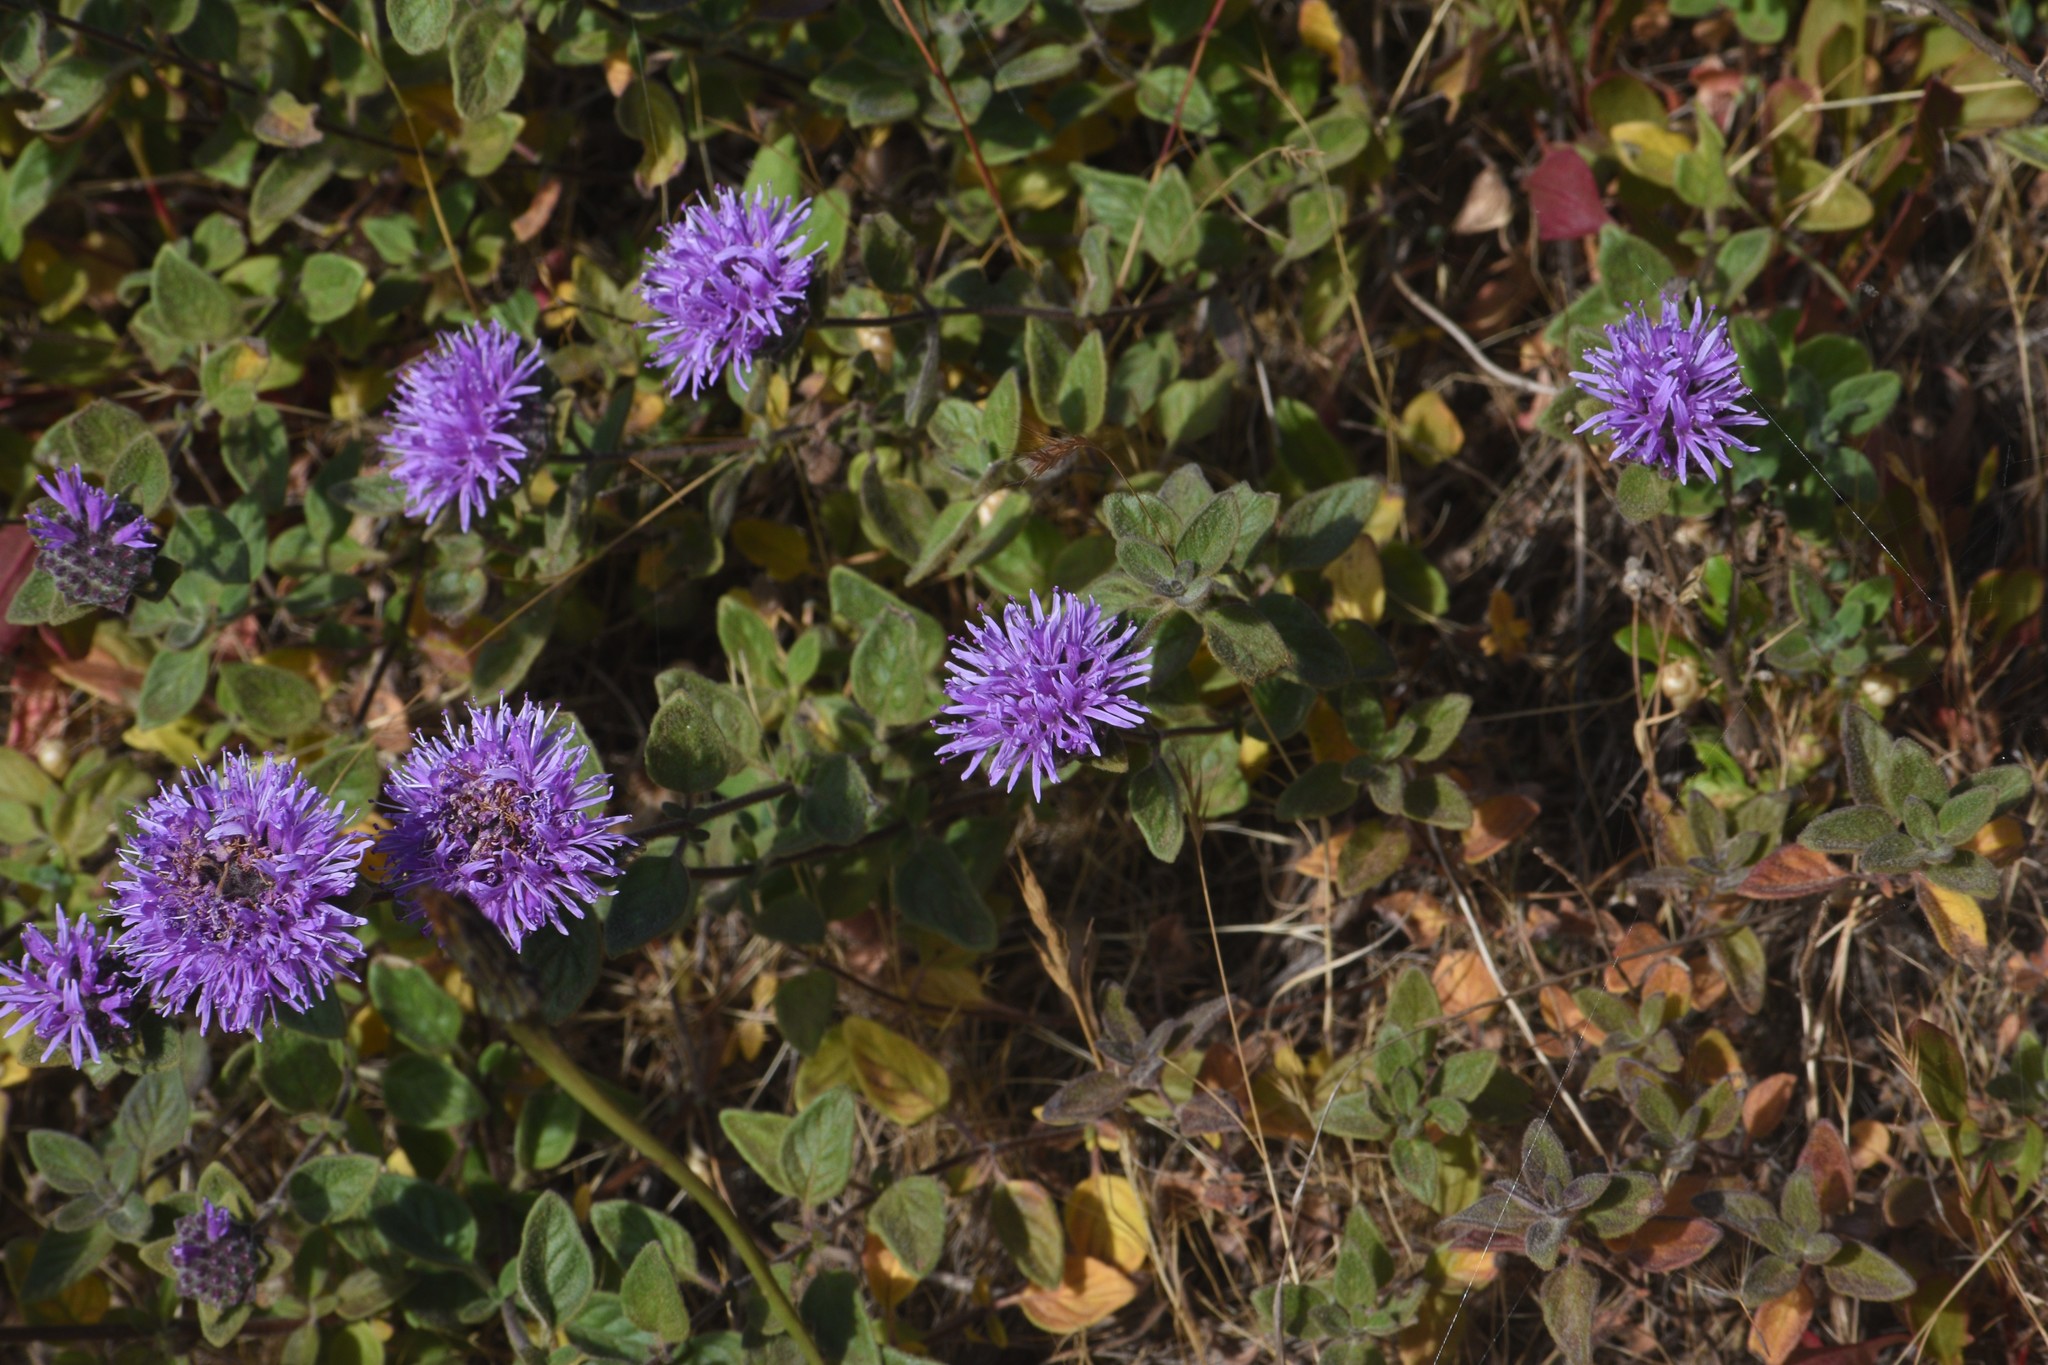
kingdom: Plantae
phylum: Tracheophyta
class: Magnoliopsida
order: Lamiales
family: Lamiaceae
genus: Monardella
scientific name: Monardella odoratissima
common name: Pacific monardella
